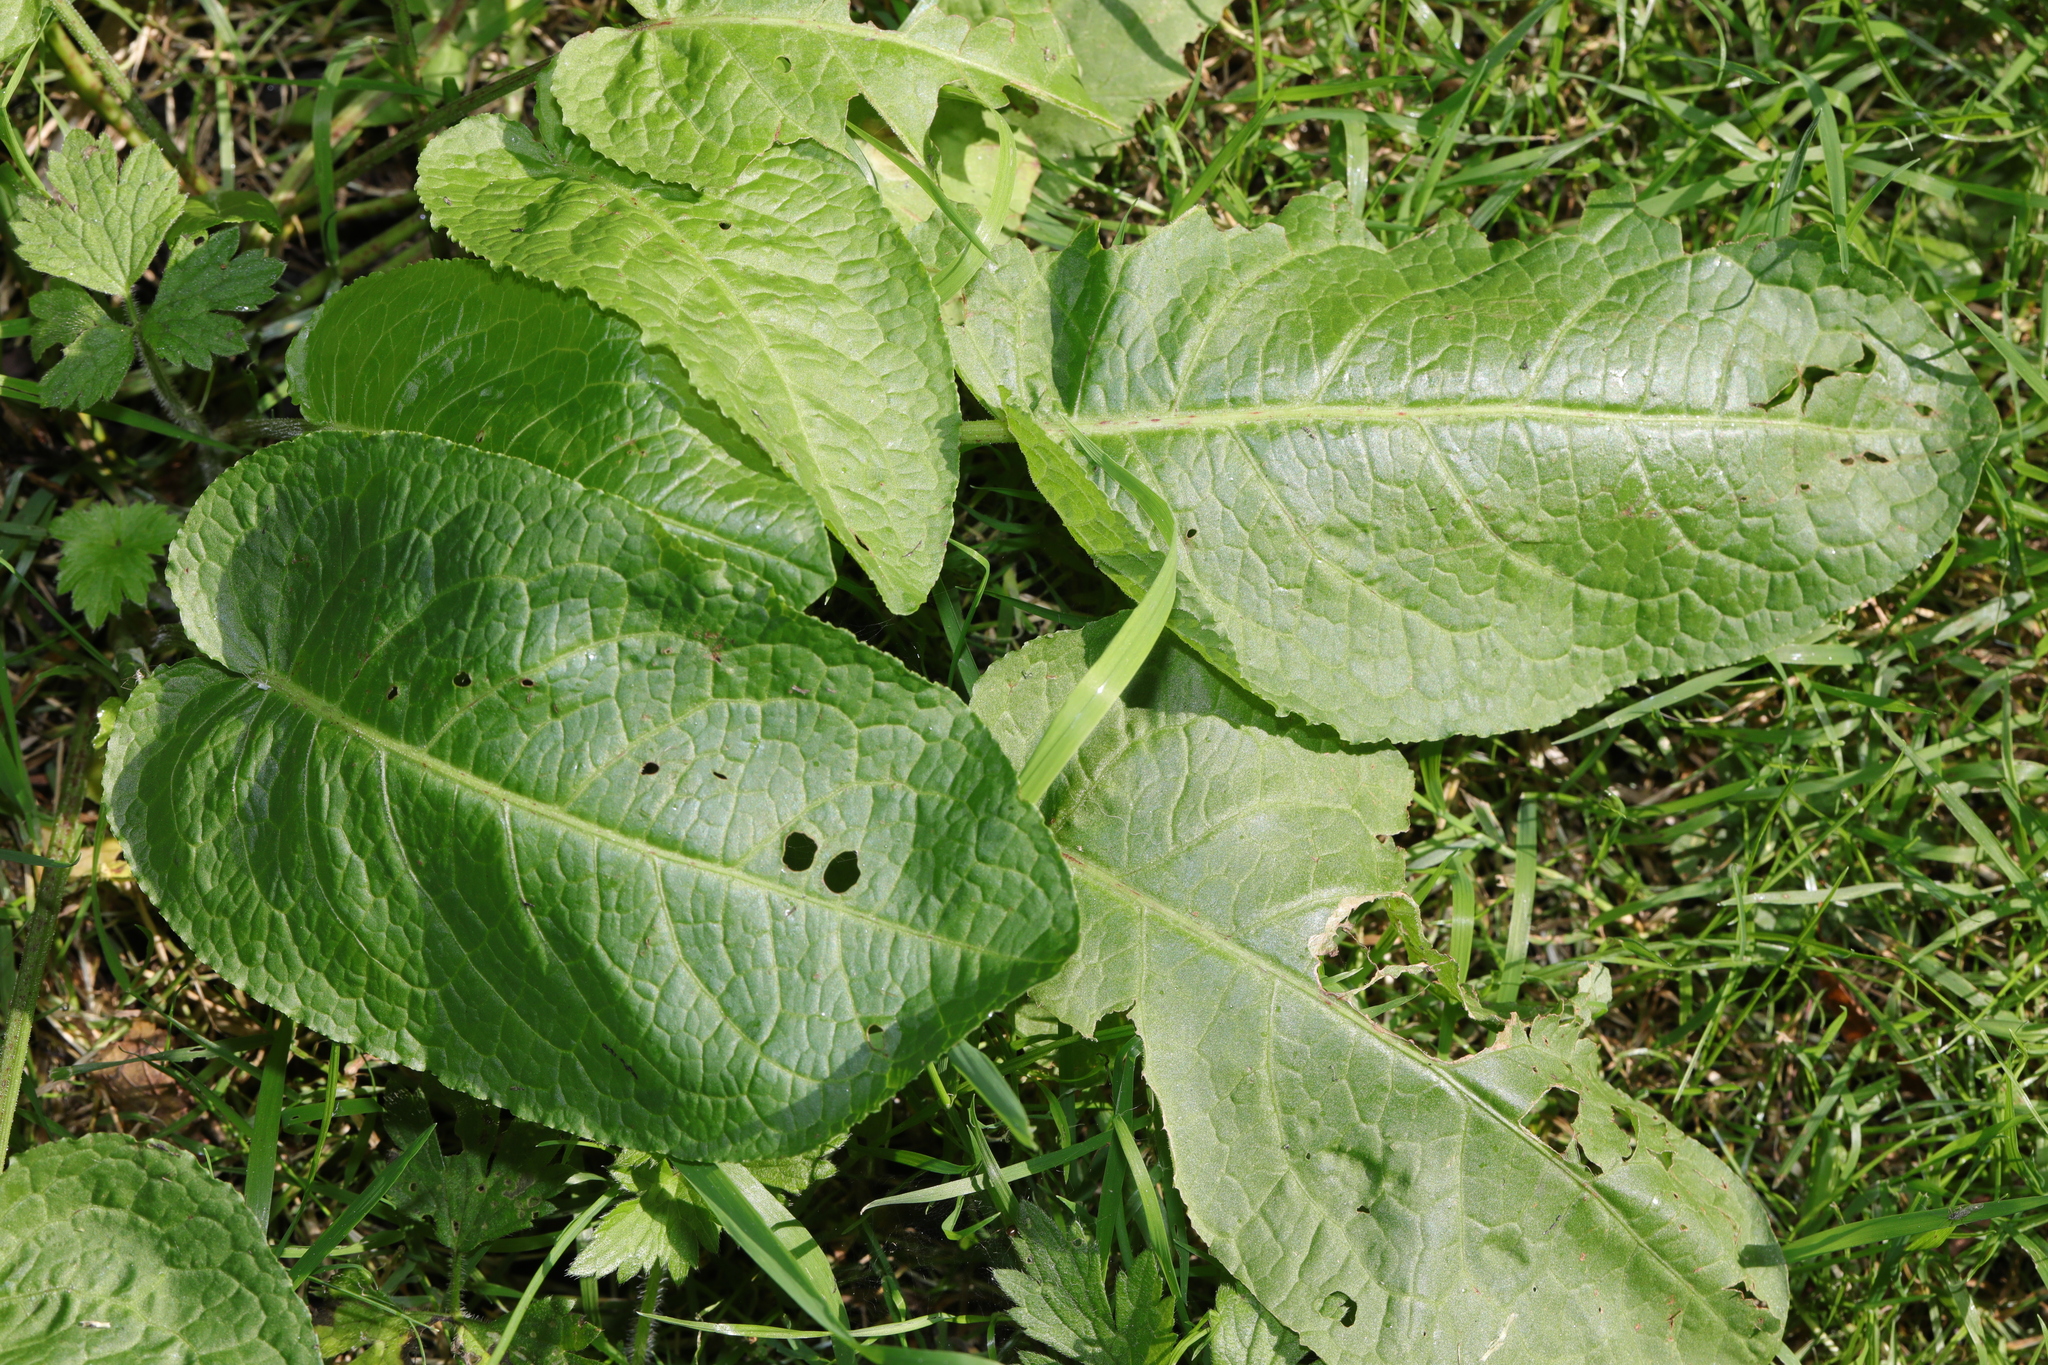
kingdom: Plantae
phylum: Tracheophyta
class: Magnoliopsida
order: Caryophyllales
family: Polygonaceae
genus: Rumex
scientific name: Rumex obtusifolius
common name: Bitter dock
